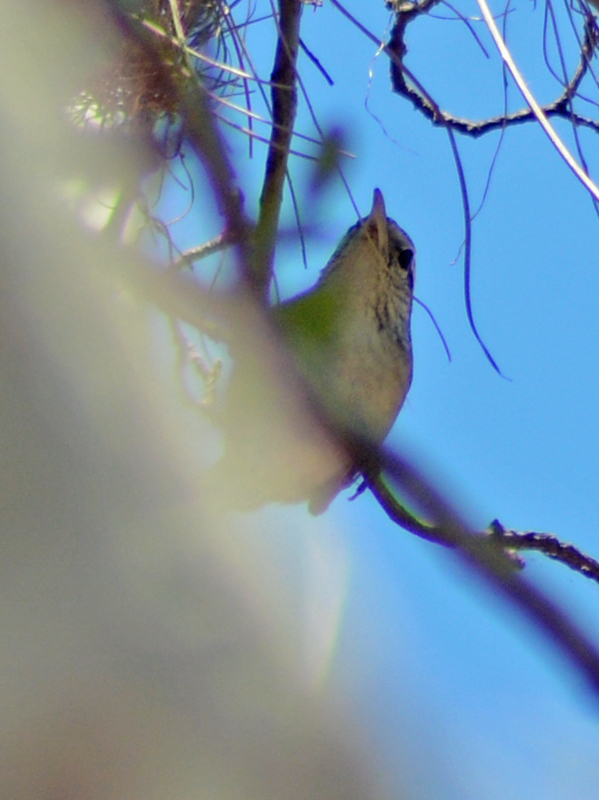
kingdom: Animalia
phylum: Chordata
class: Aves
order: Passeriformes
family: Troglodytidae
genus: Thryophilus
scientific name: Thryophilus sinaloa
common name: Sinaloa wren
